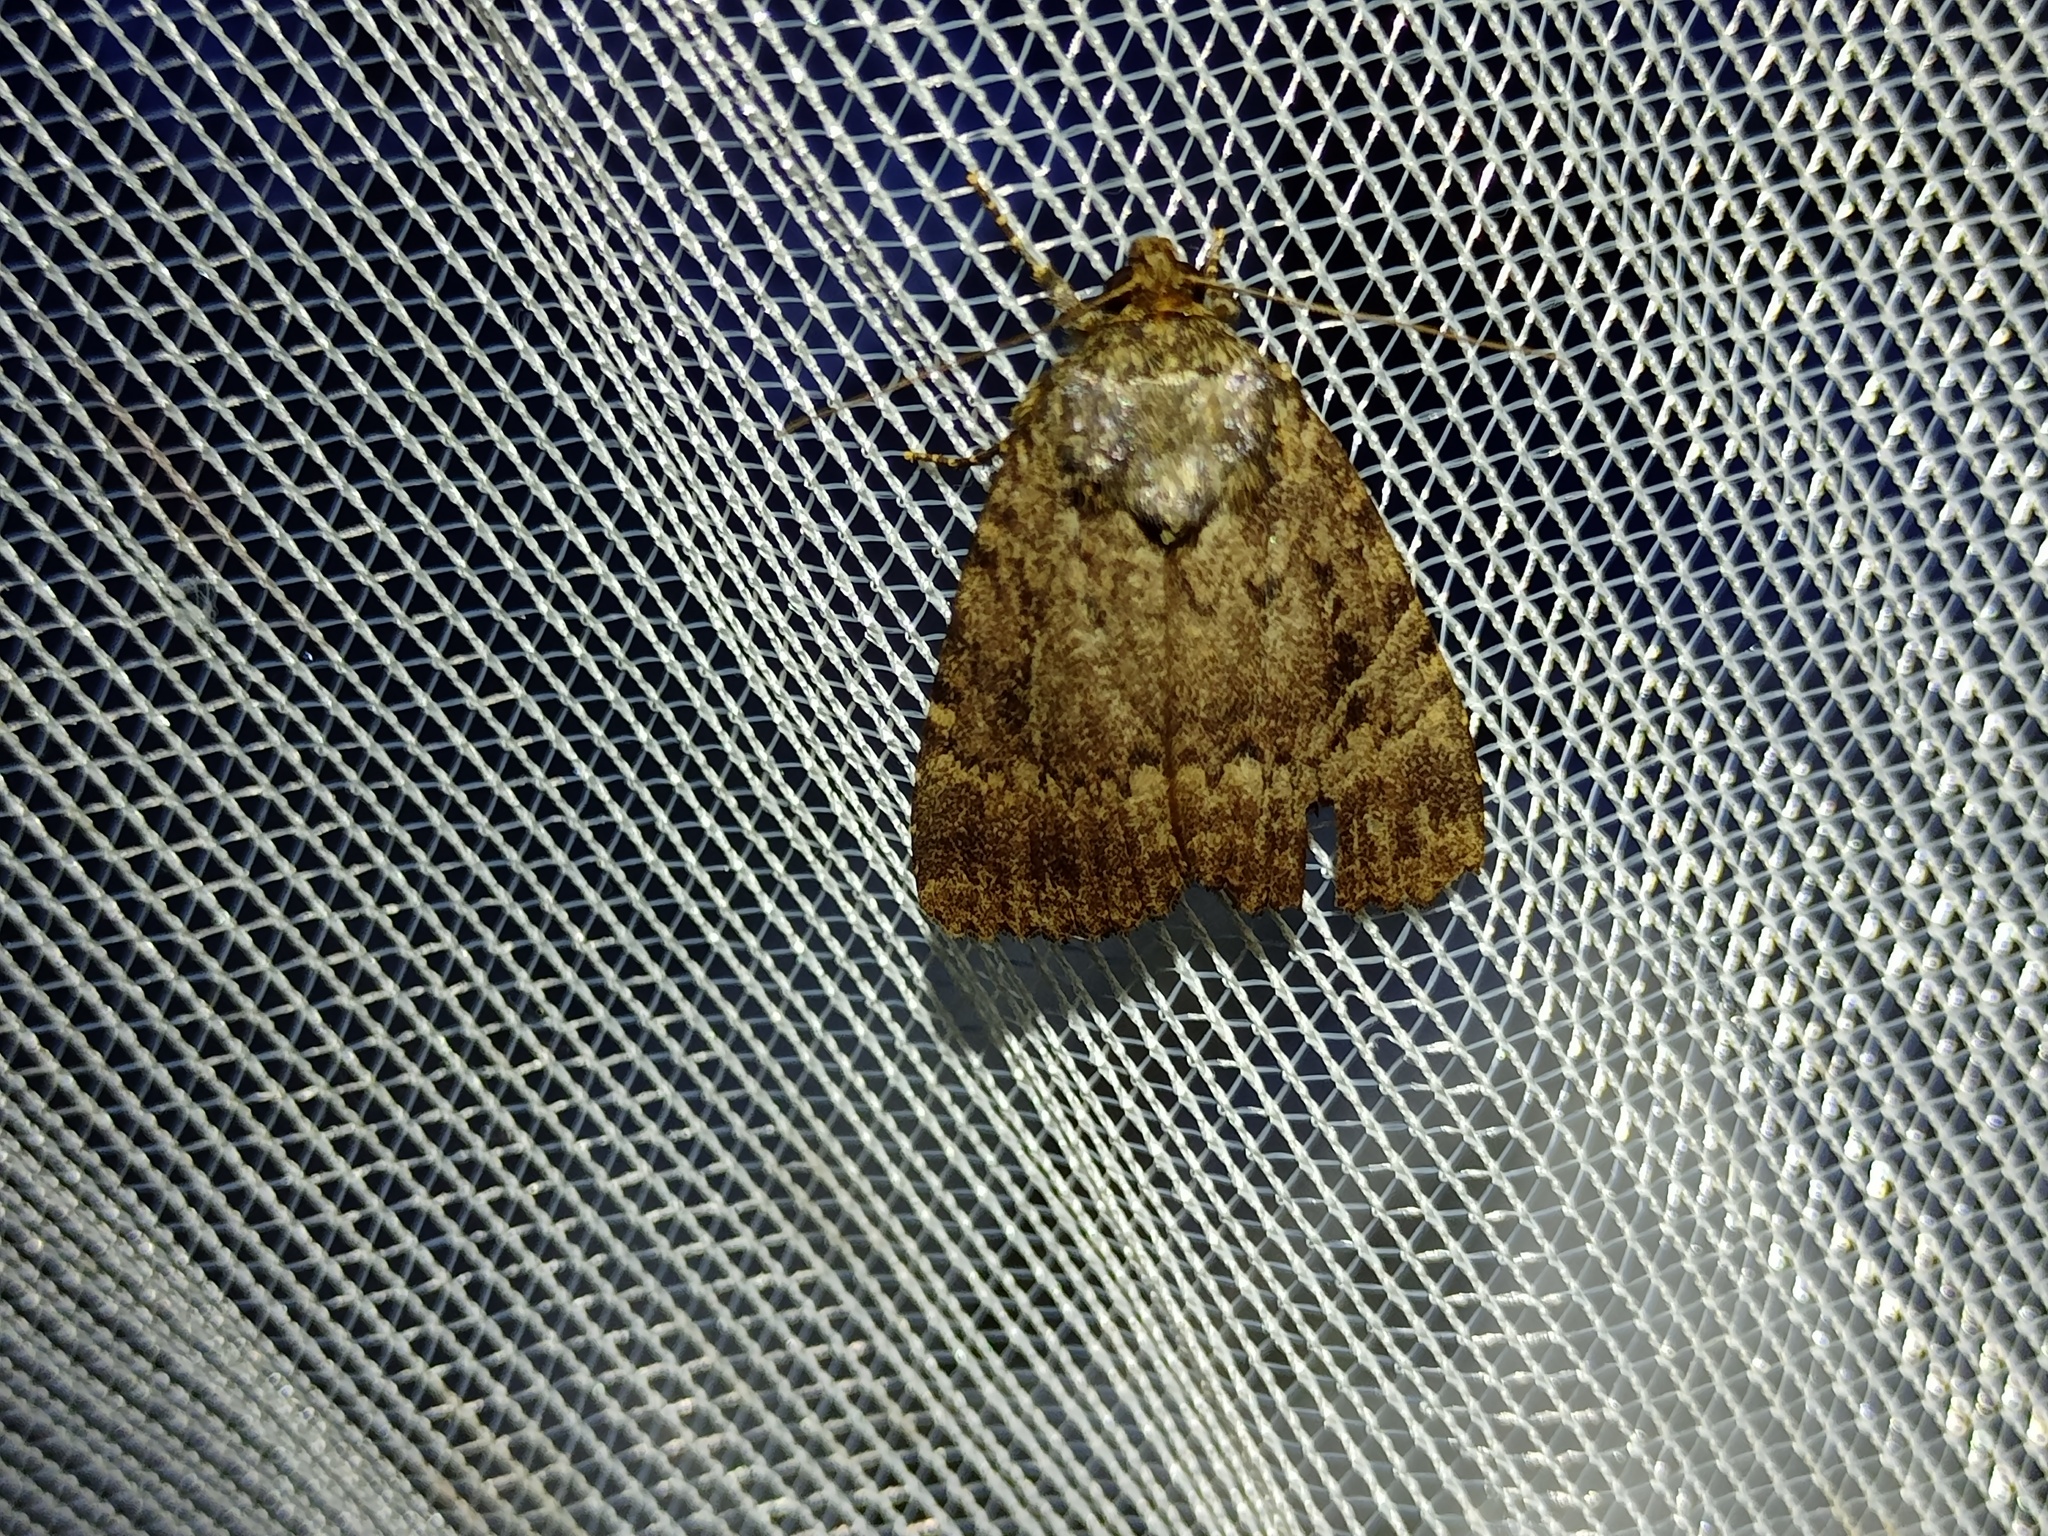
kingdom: Animalia
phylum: Arthropoda
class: Insecta
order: Lepidoptera
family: Noctuidae
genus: Amphipyra
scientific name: Amphipyra pyramidea
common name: Copper underwing
